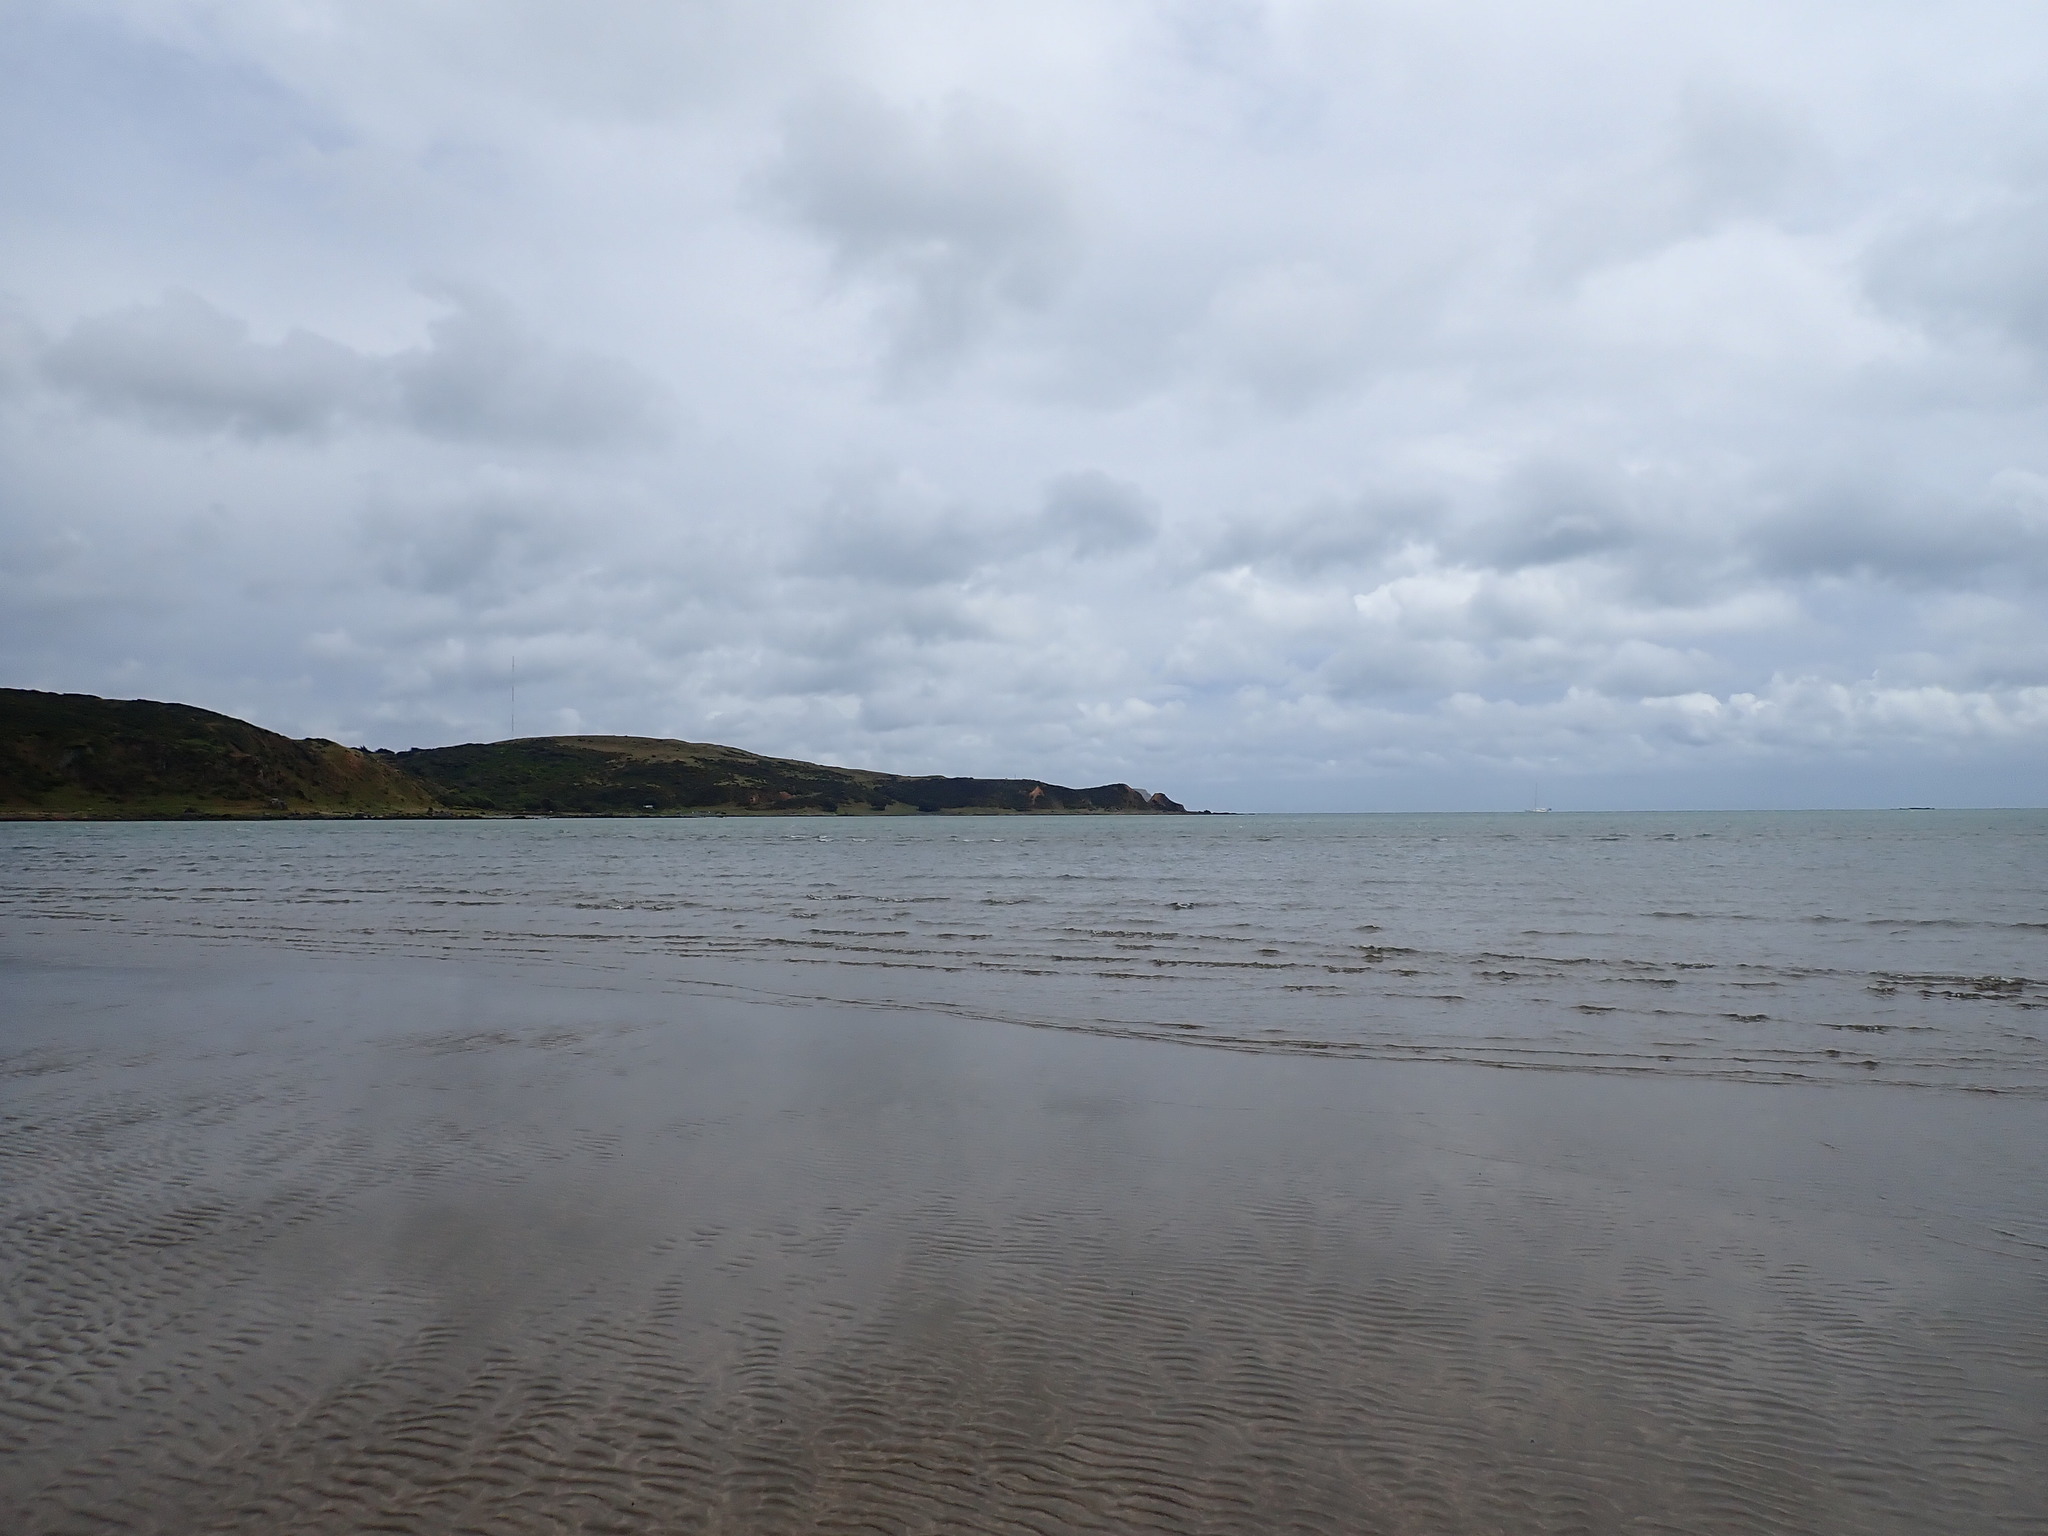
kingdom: Animalia
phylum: Mollusca
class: Gastropoda
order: Neogastropoda
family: Ancillariidae
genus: Amalda
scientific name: Amalda australis
